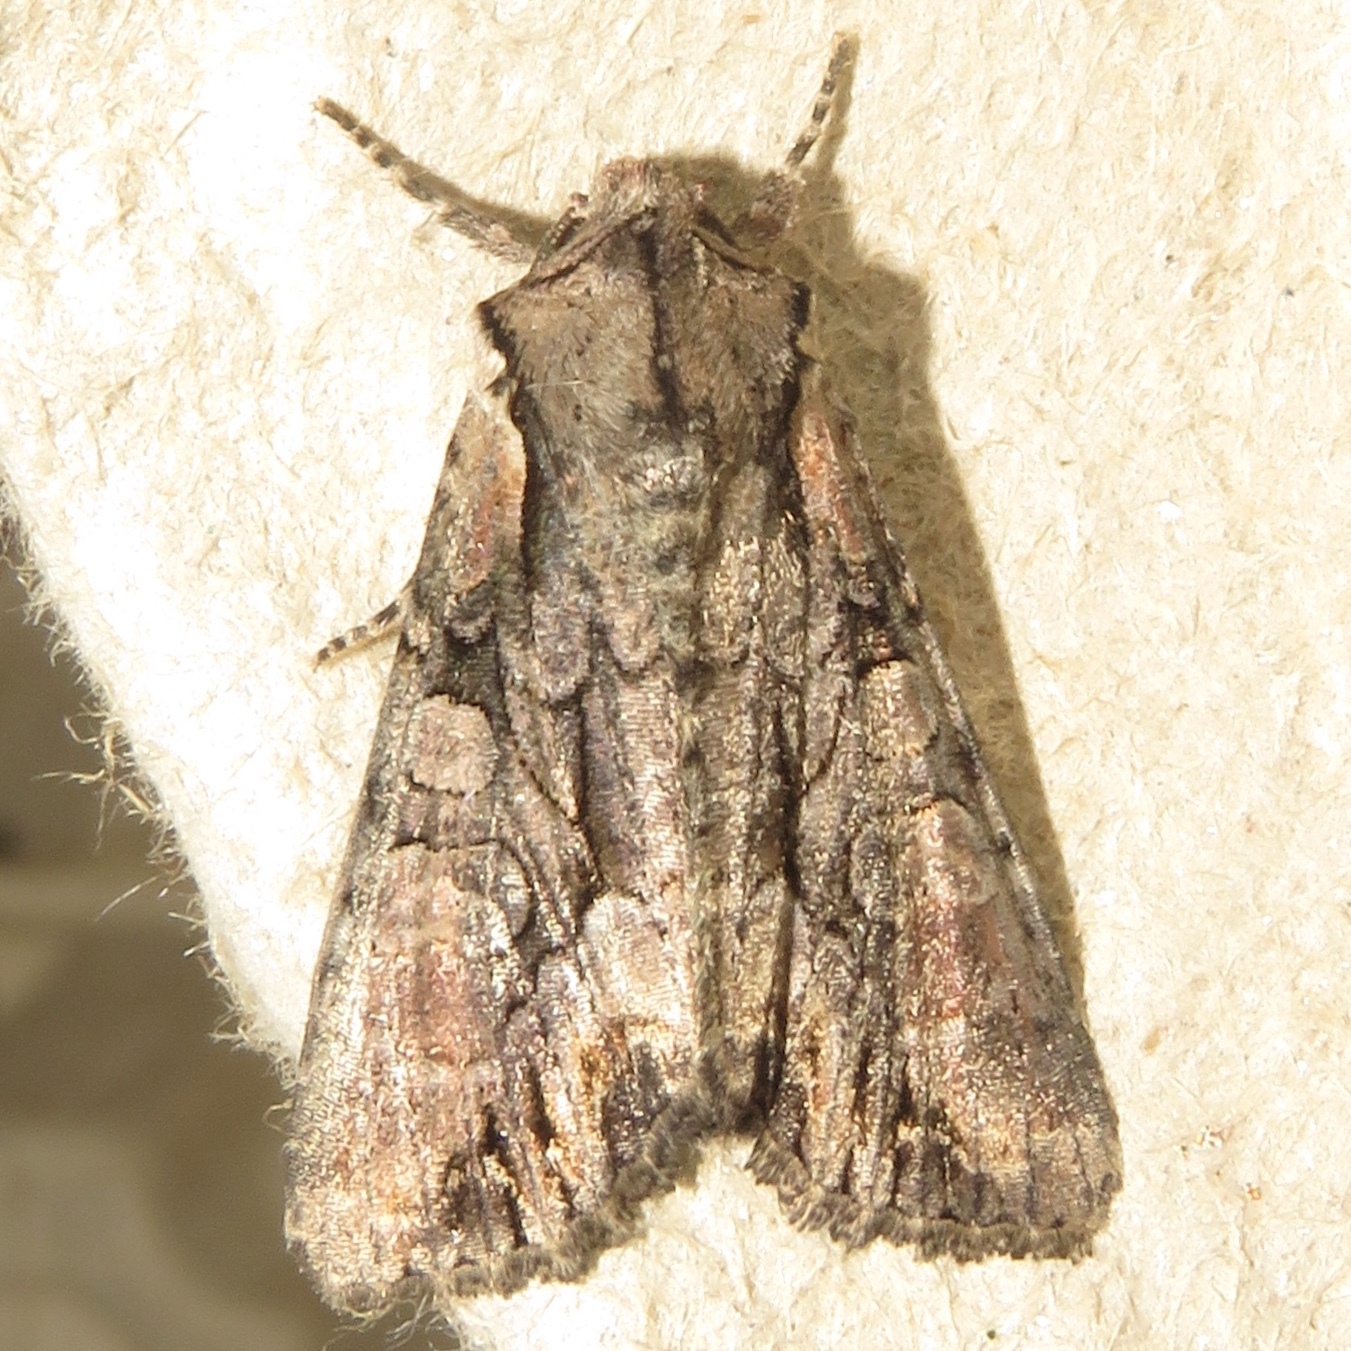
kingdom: Animalia
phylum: Arthropoda
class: Insecta
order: Lepidoptera
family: Noctuidae
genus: Lacanobia
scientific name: Lacanobia subjuncta
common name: Speckled cutworm moth
